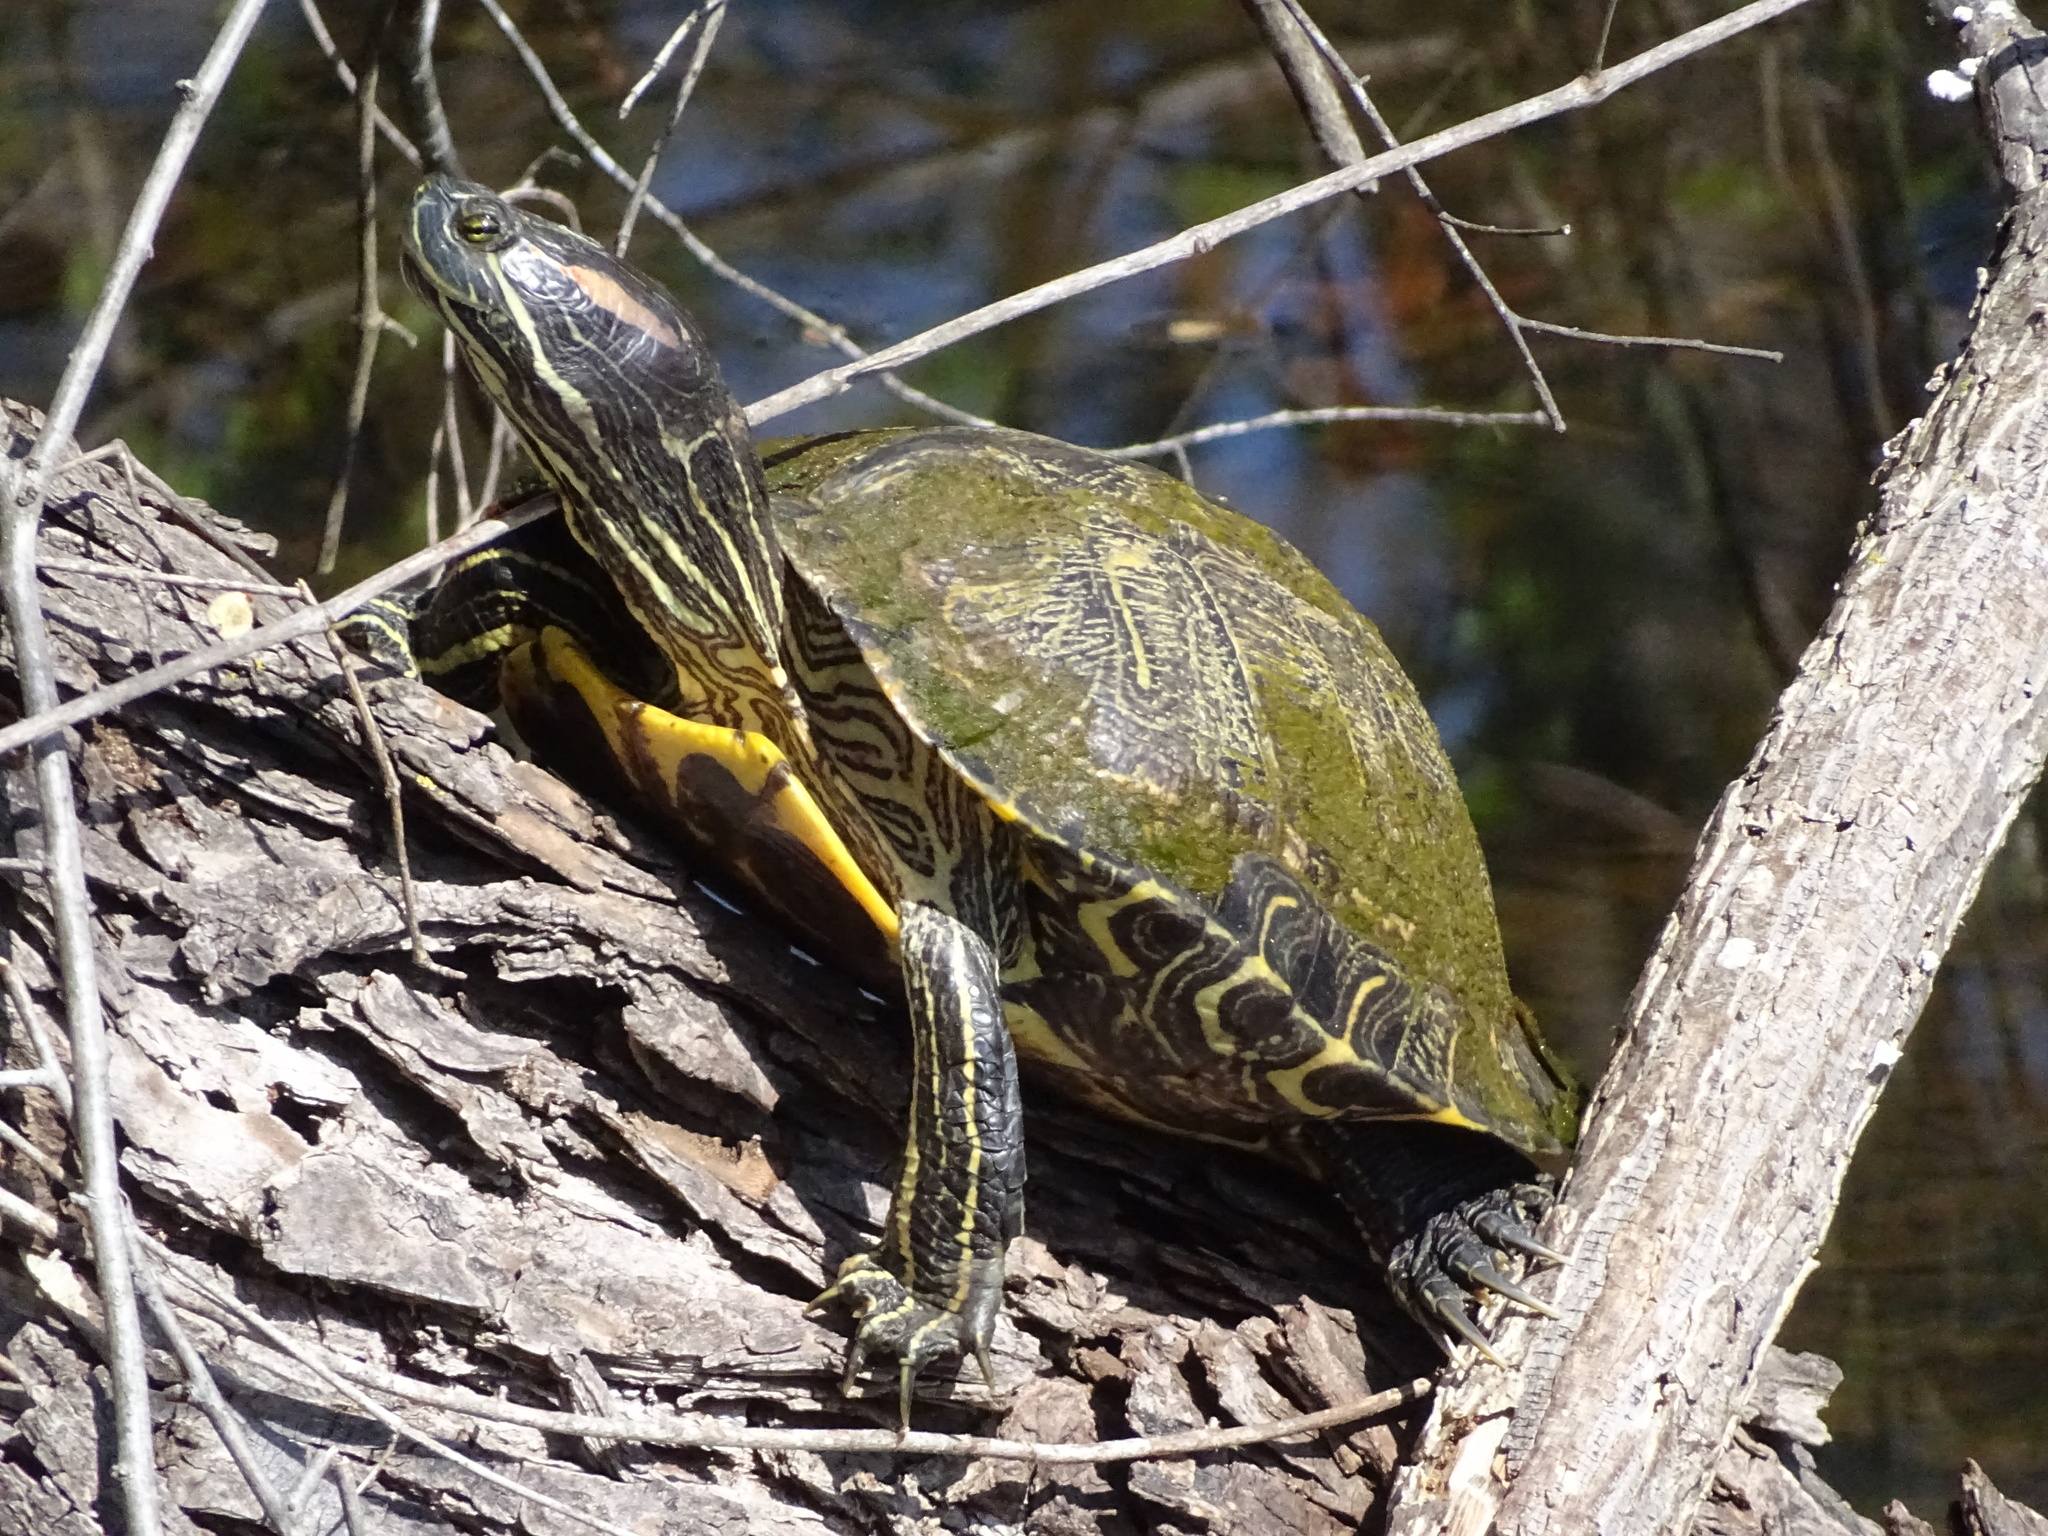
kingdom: Animalia
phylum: Chordata
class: Testudines
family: Emydidae
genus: Trachemys
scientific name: Trachemys scripta
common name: Slider
